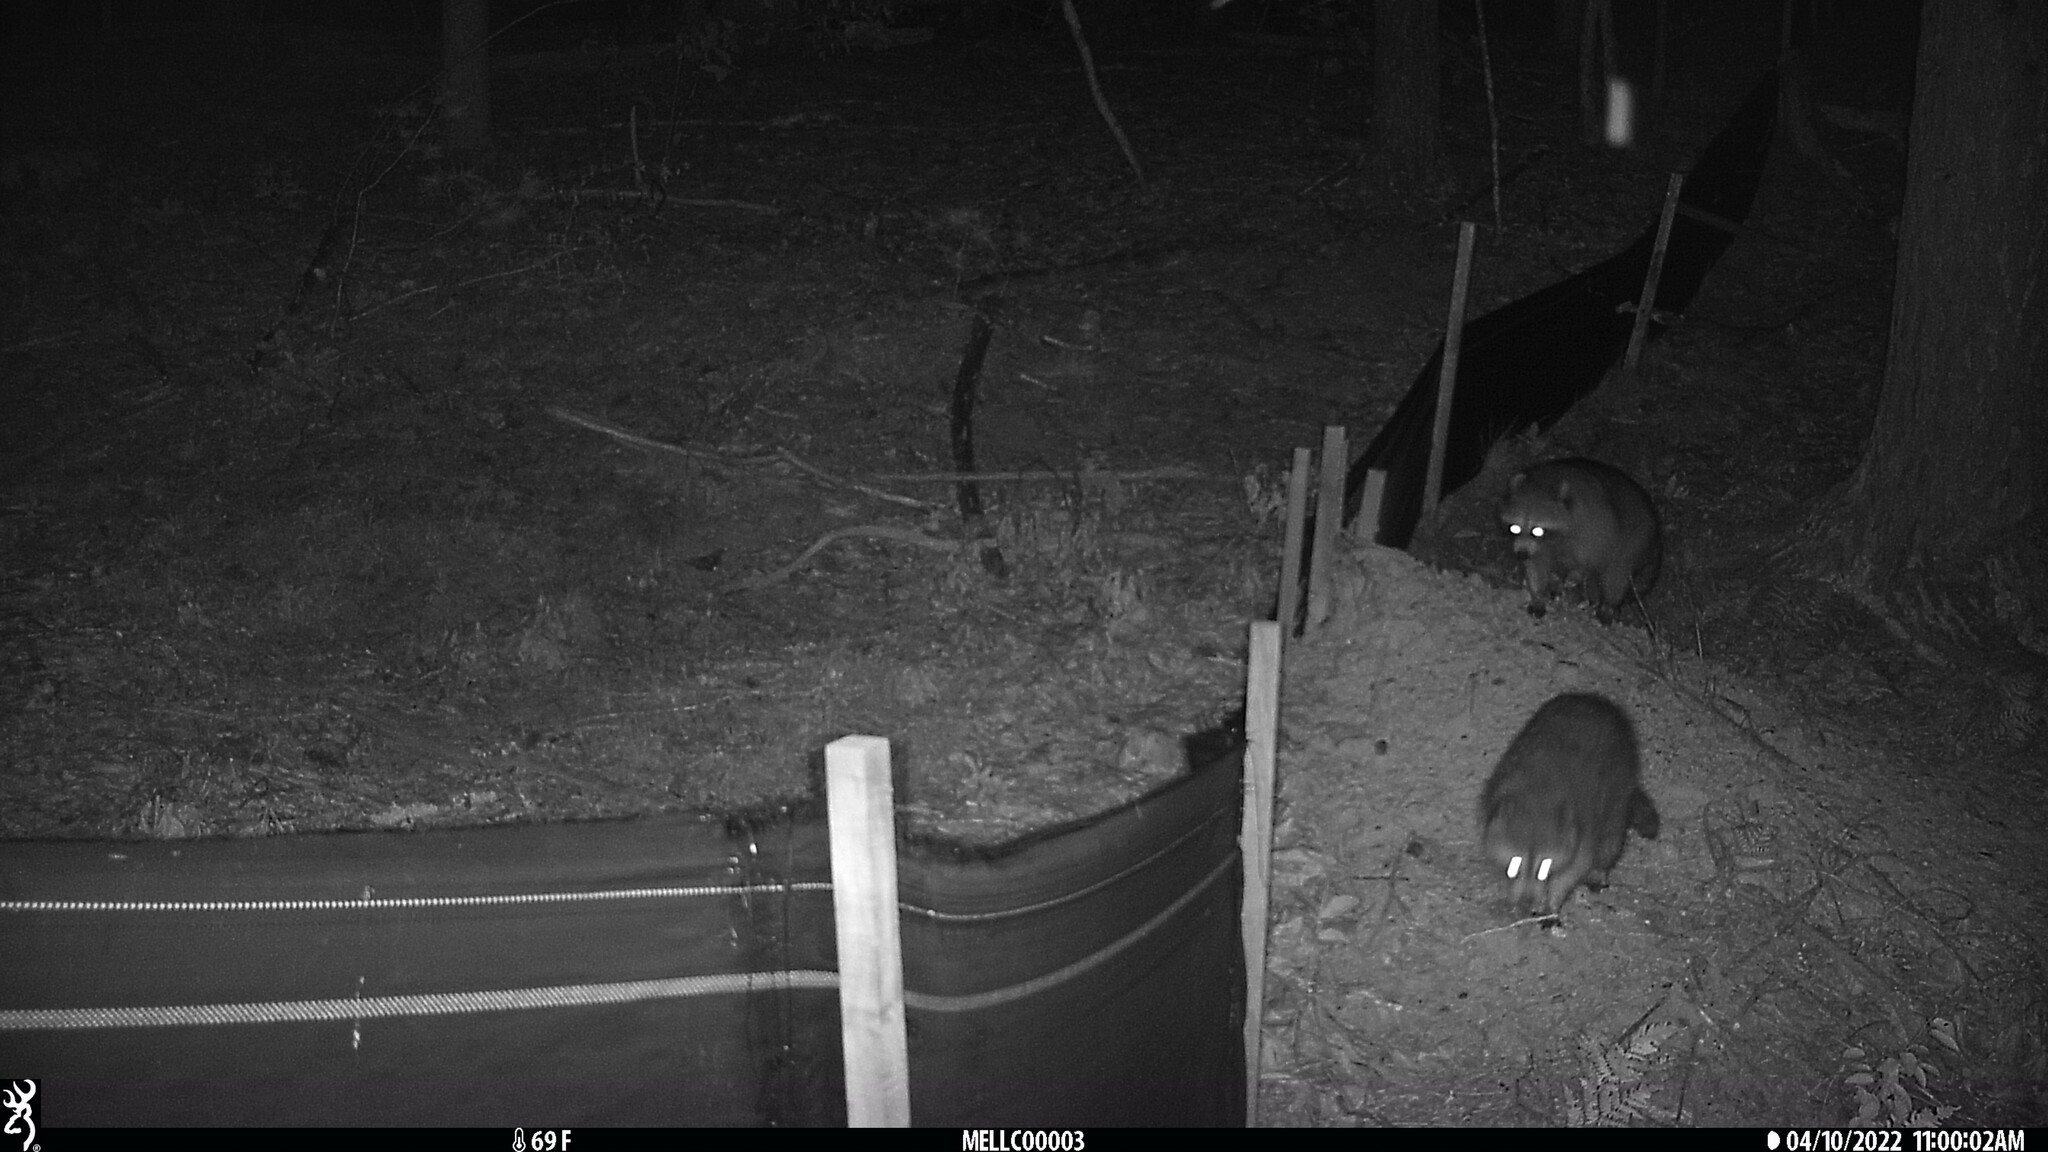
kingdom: Animalia
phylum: Chordata
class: Mammalia
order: Carnivora
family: Procyonidae
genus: Procyon
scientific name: Procyon lotor
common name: Raccoon
